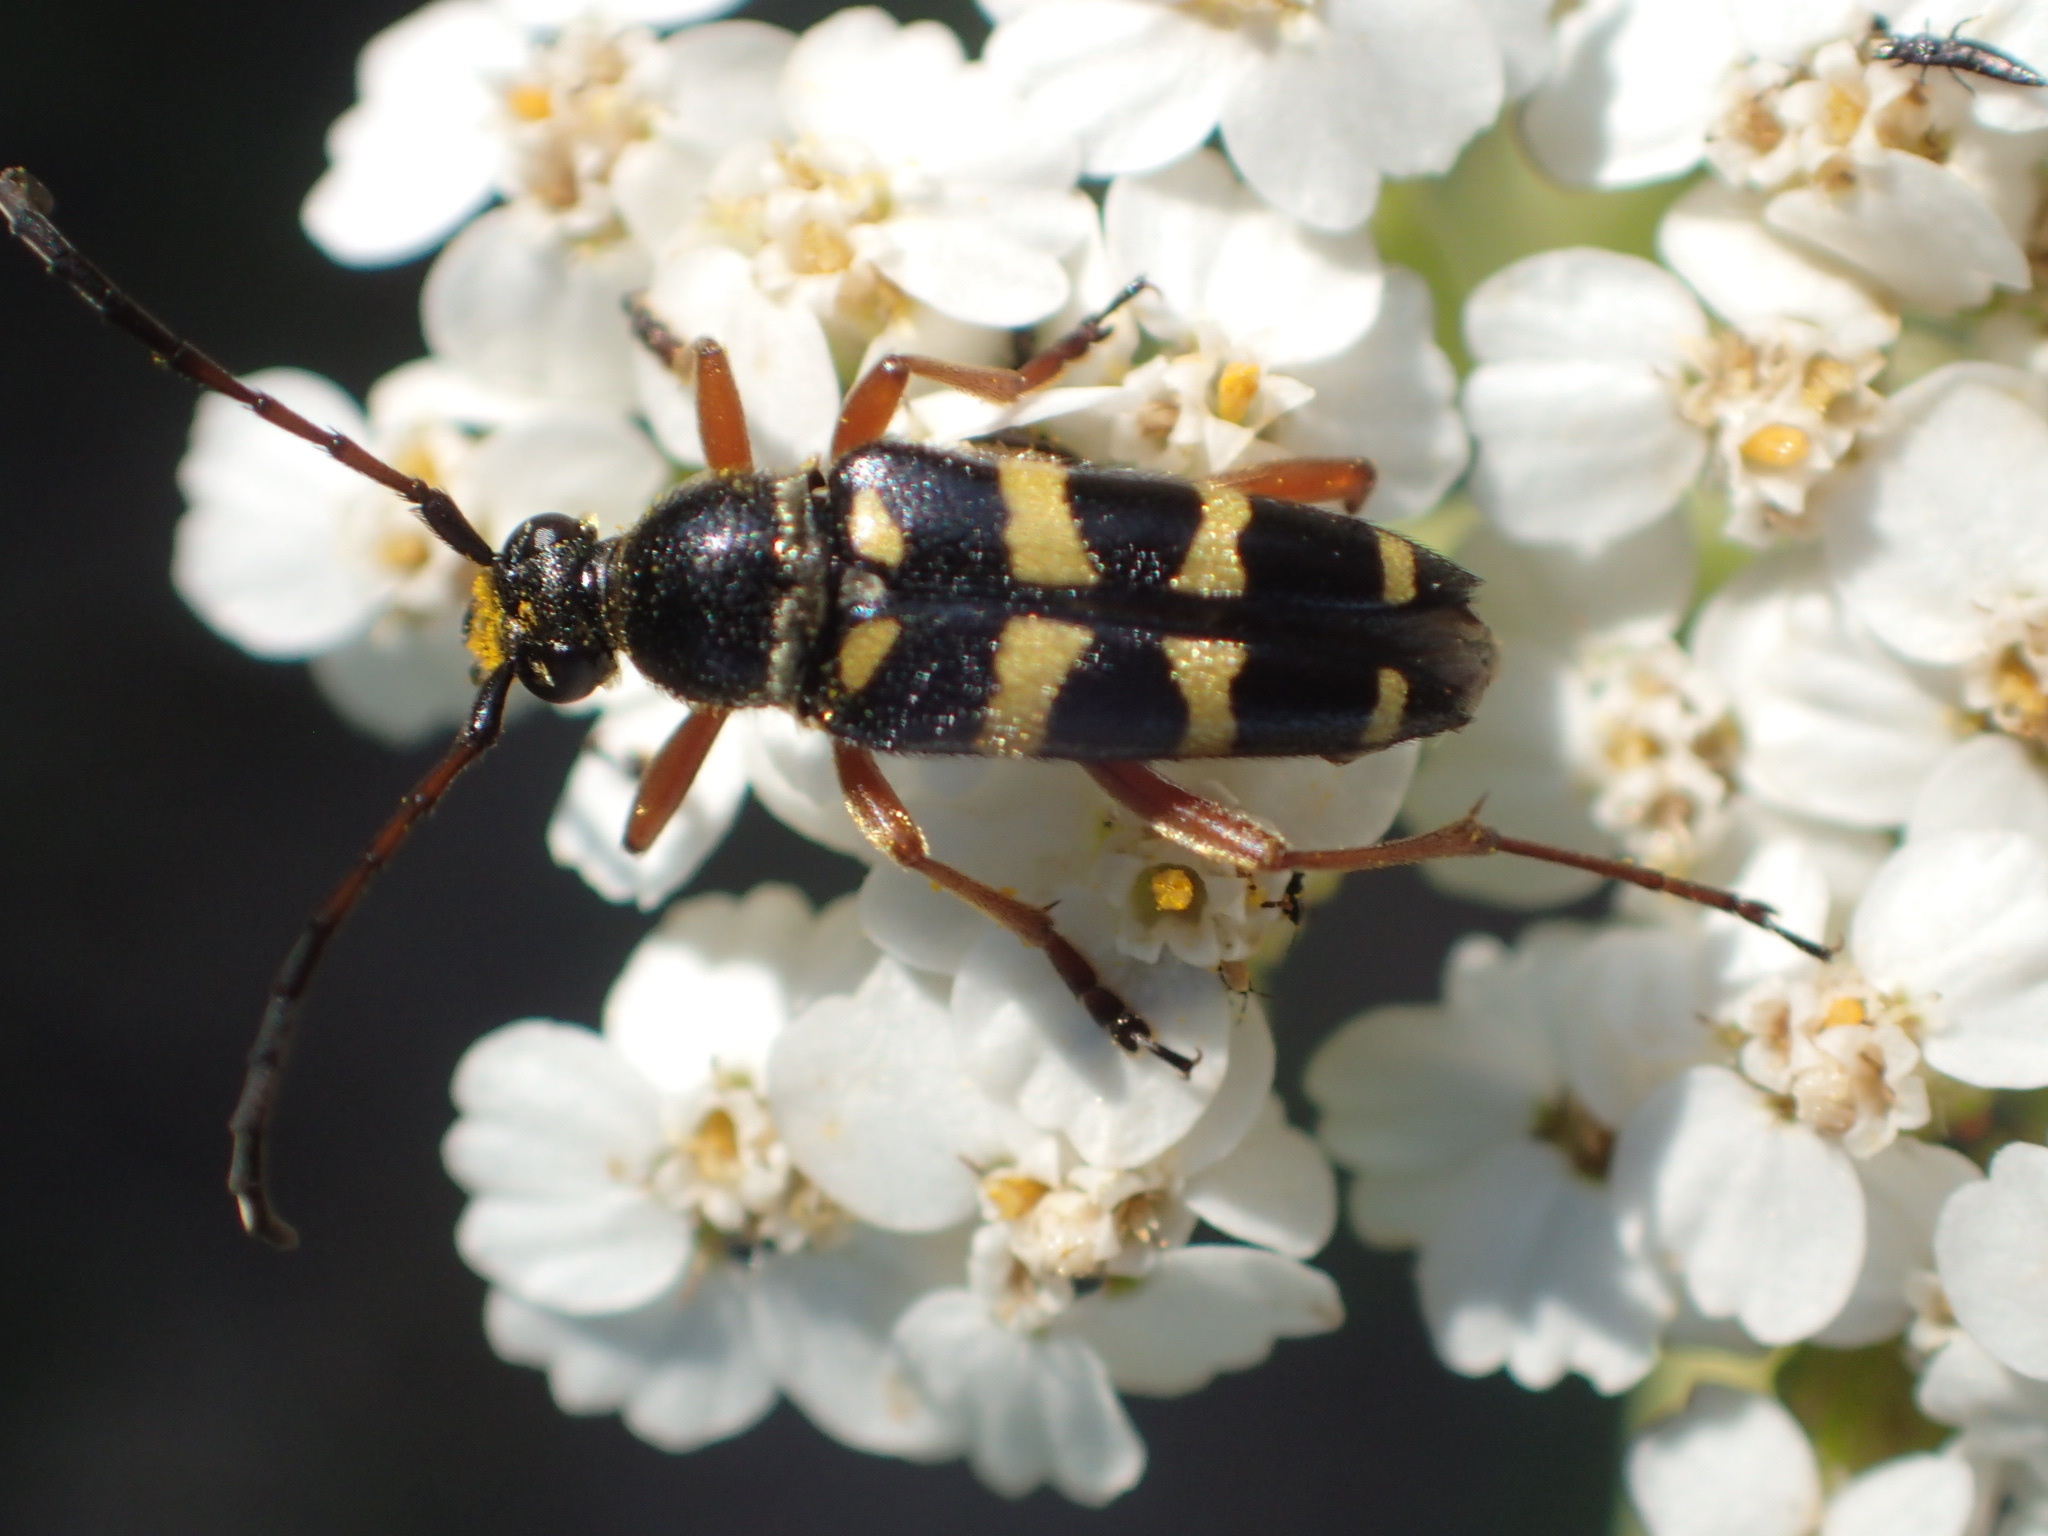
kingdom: Animalia
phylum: Arthropoda
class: Insecta
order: Coleoptera
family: Cerambycidae
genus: Typocerus
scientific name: Typocerus sparsus
